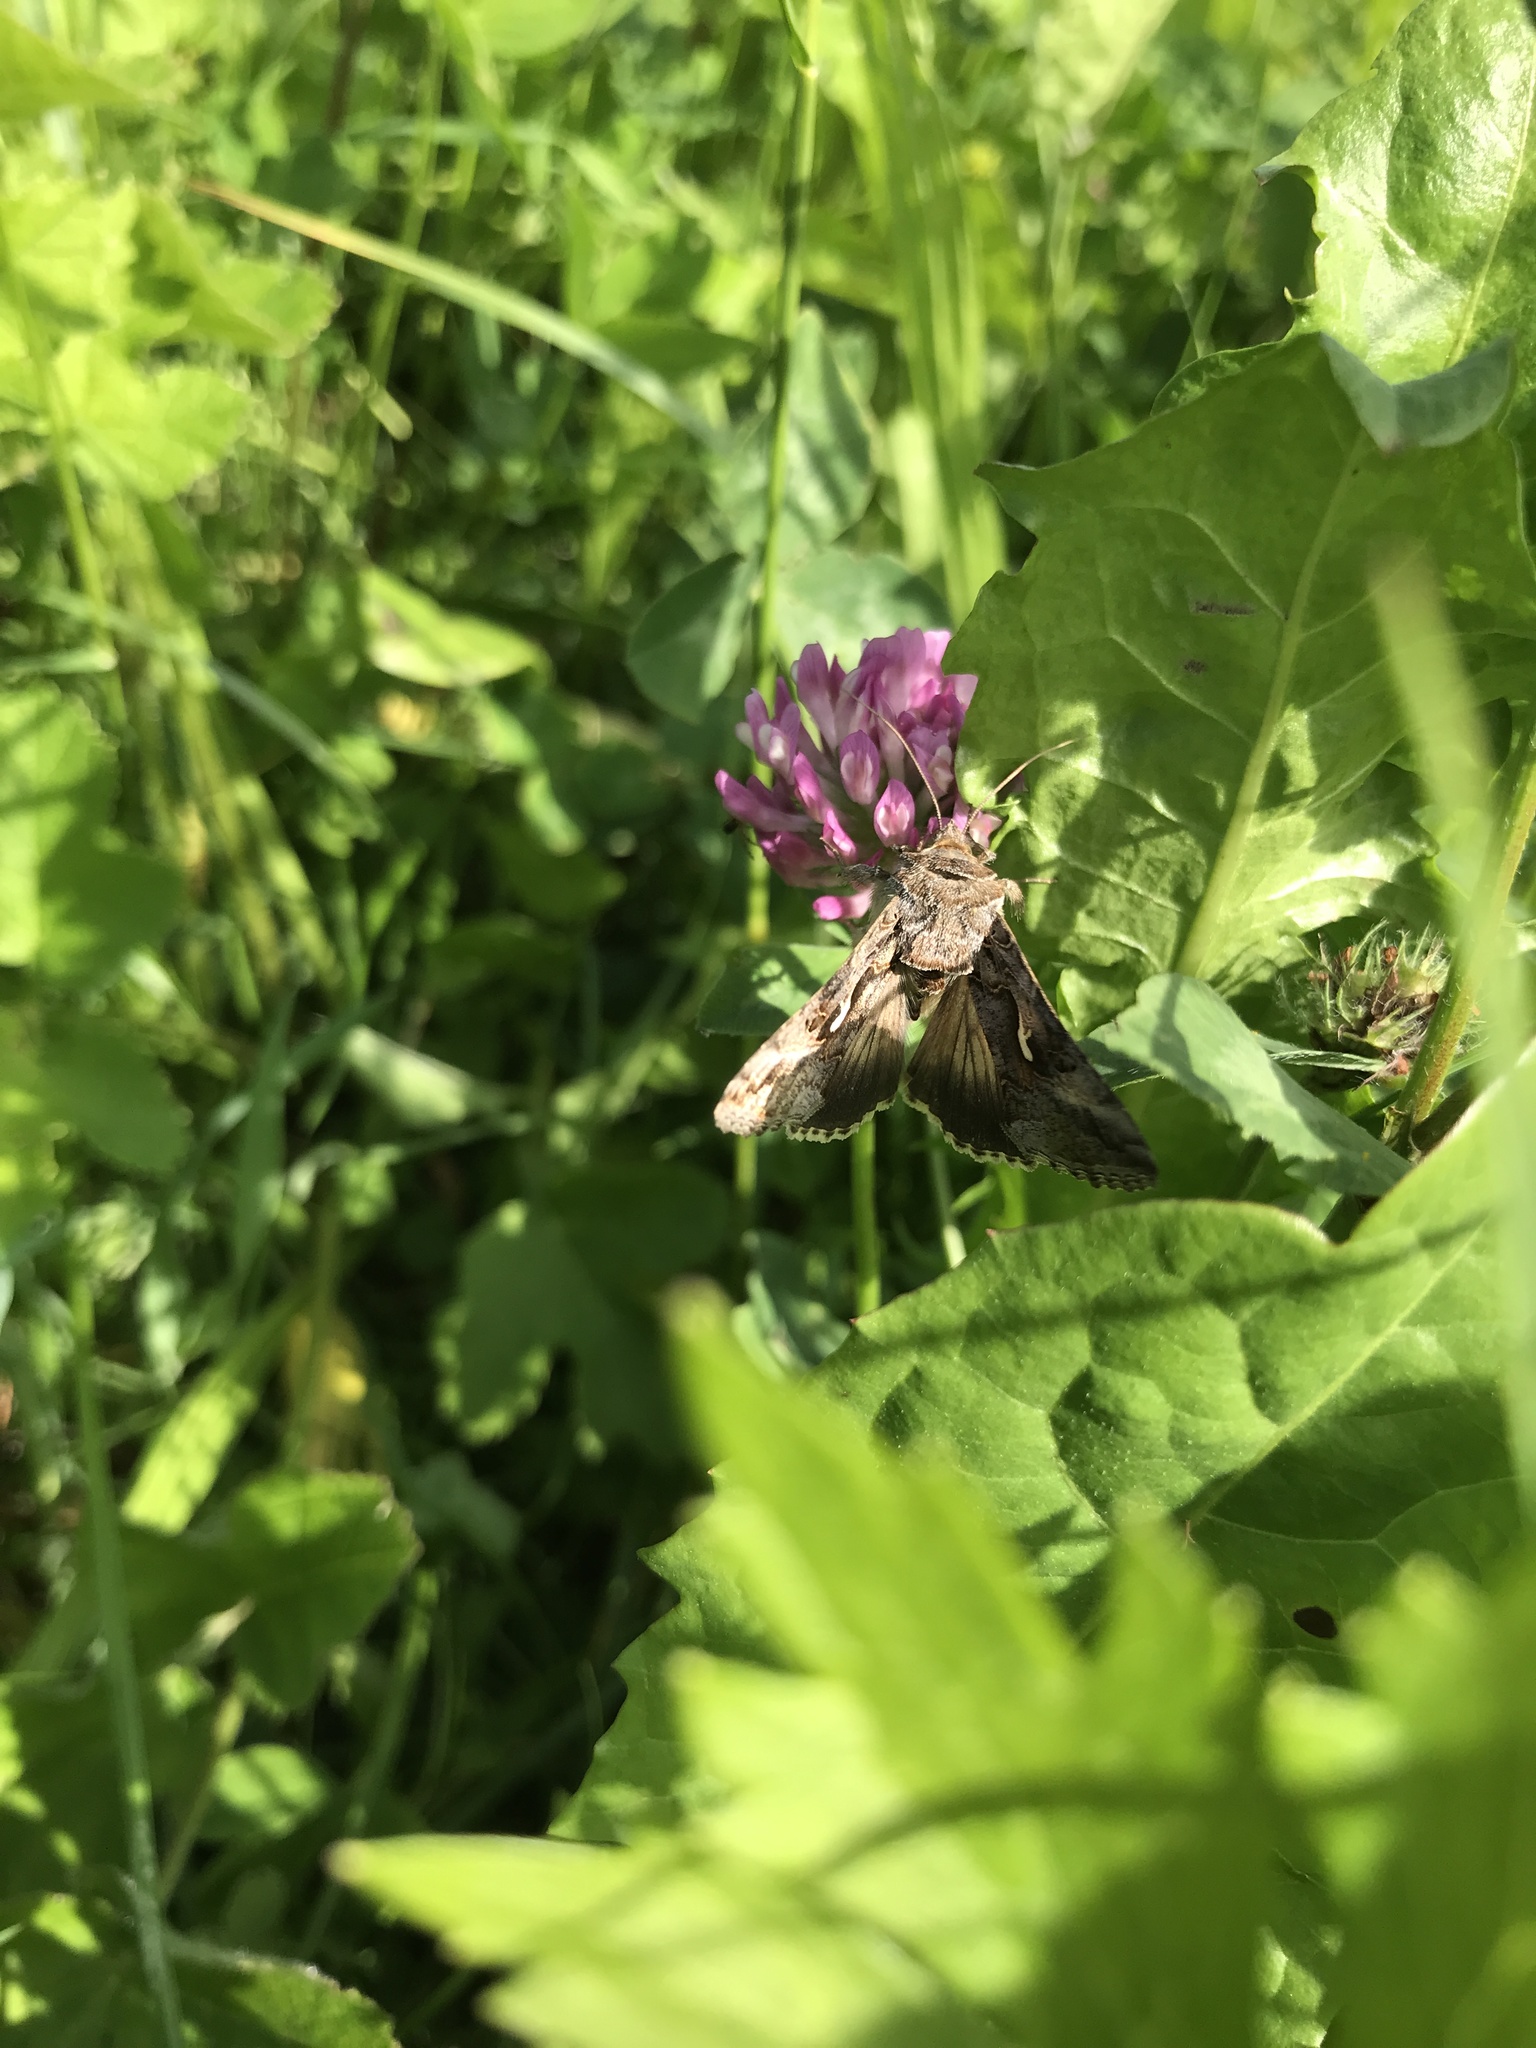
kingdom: Animalia
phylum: Arthropoda
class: Insecta
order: Lepidoptera
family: Noctuidae
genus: Autographa
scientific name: Autographa gamma
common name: Silver y
